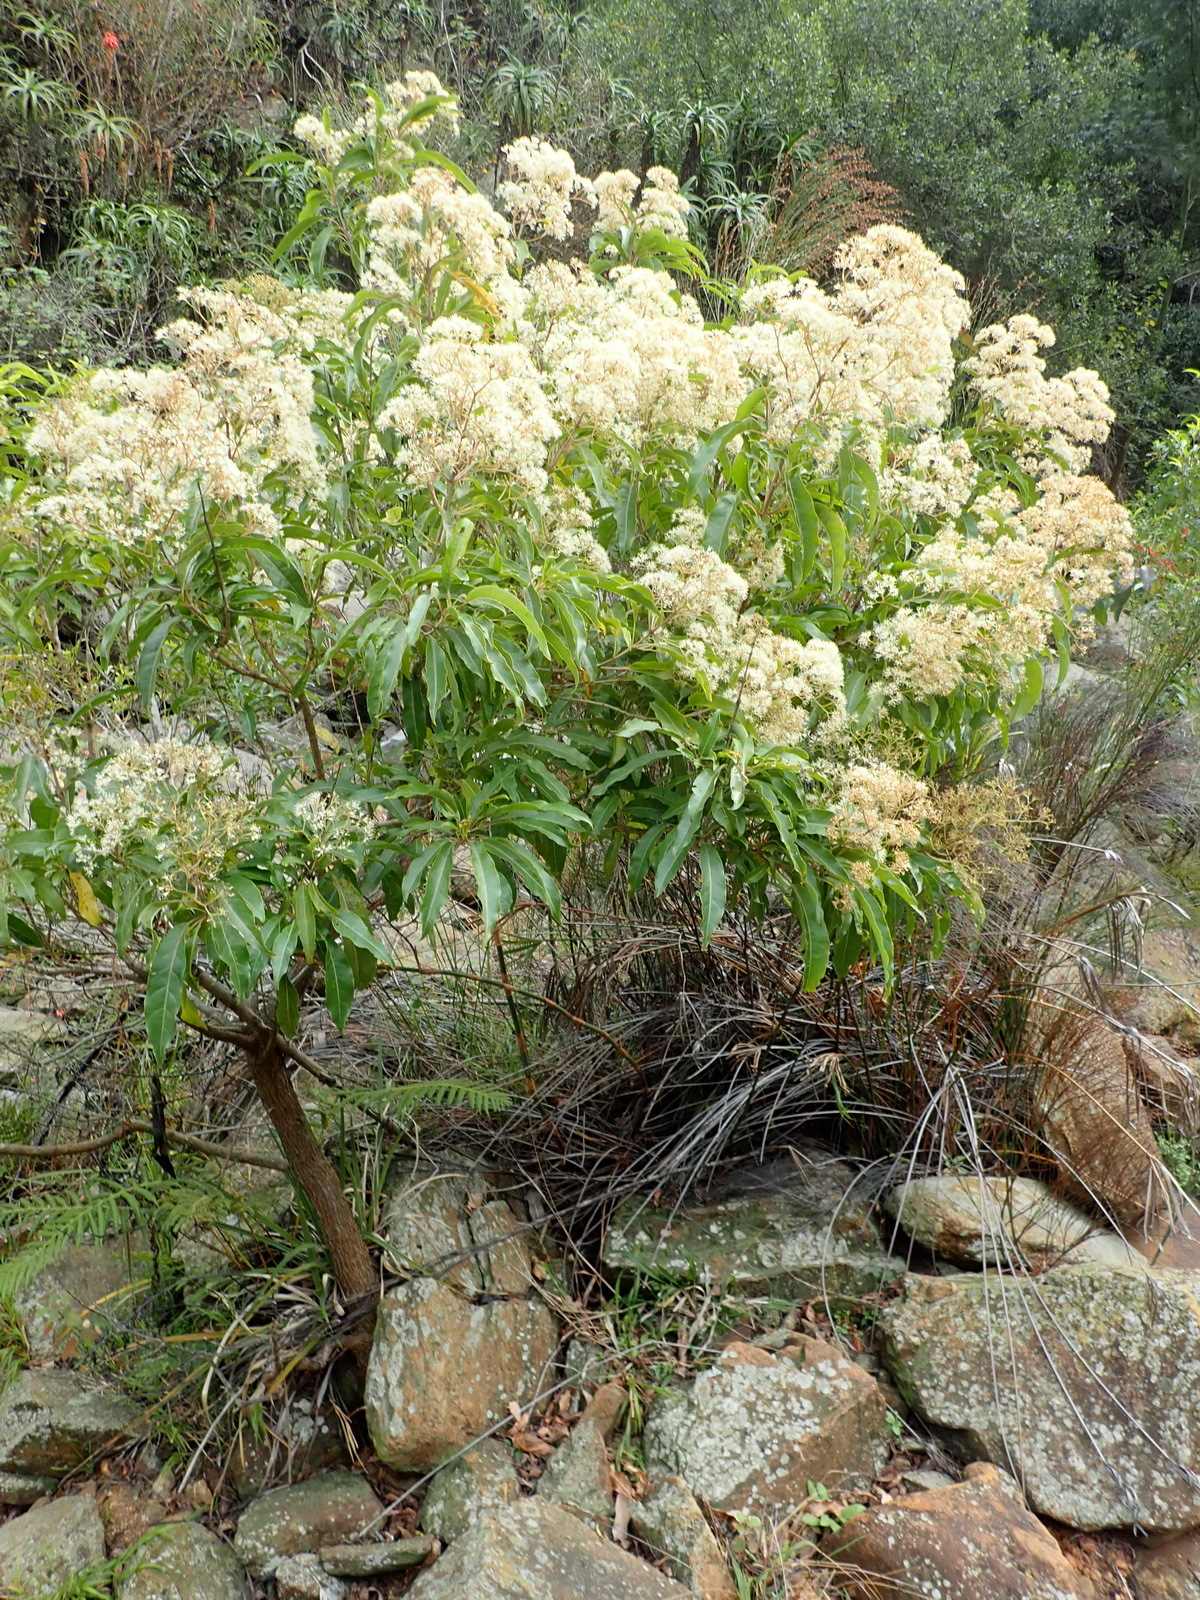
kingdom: Plantae
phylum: Tracheophyta
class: Magnoliopsida
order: Lamiales
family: Stilbaceae
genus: Nuxia
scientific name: Nuxia floribunda
